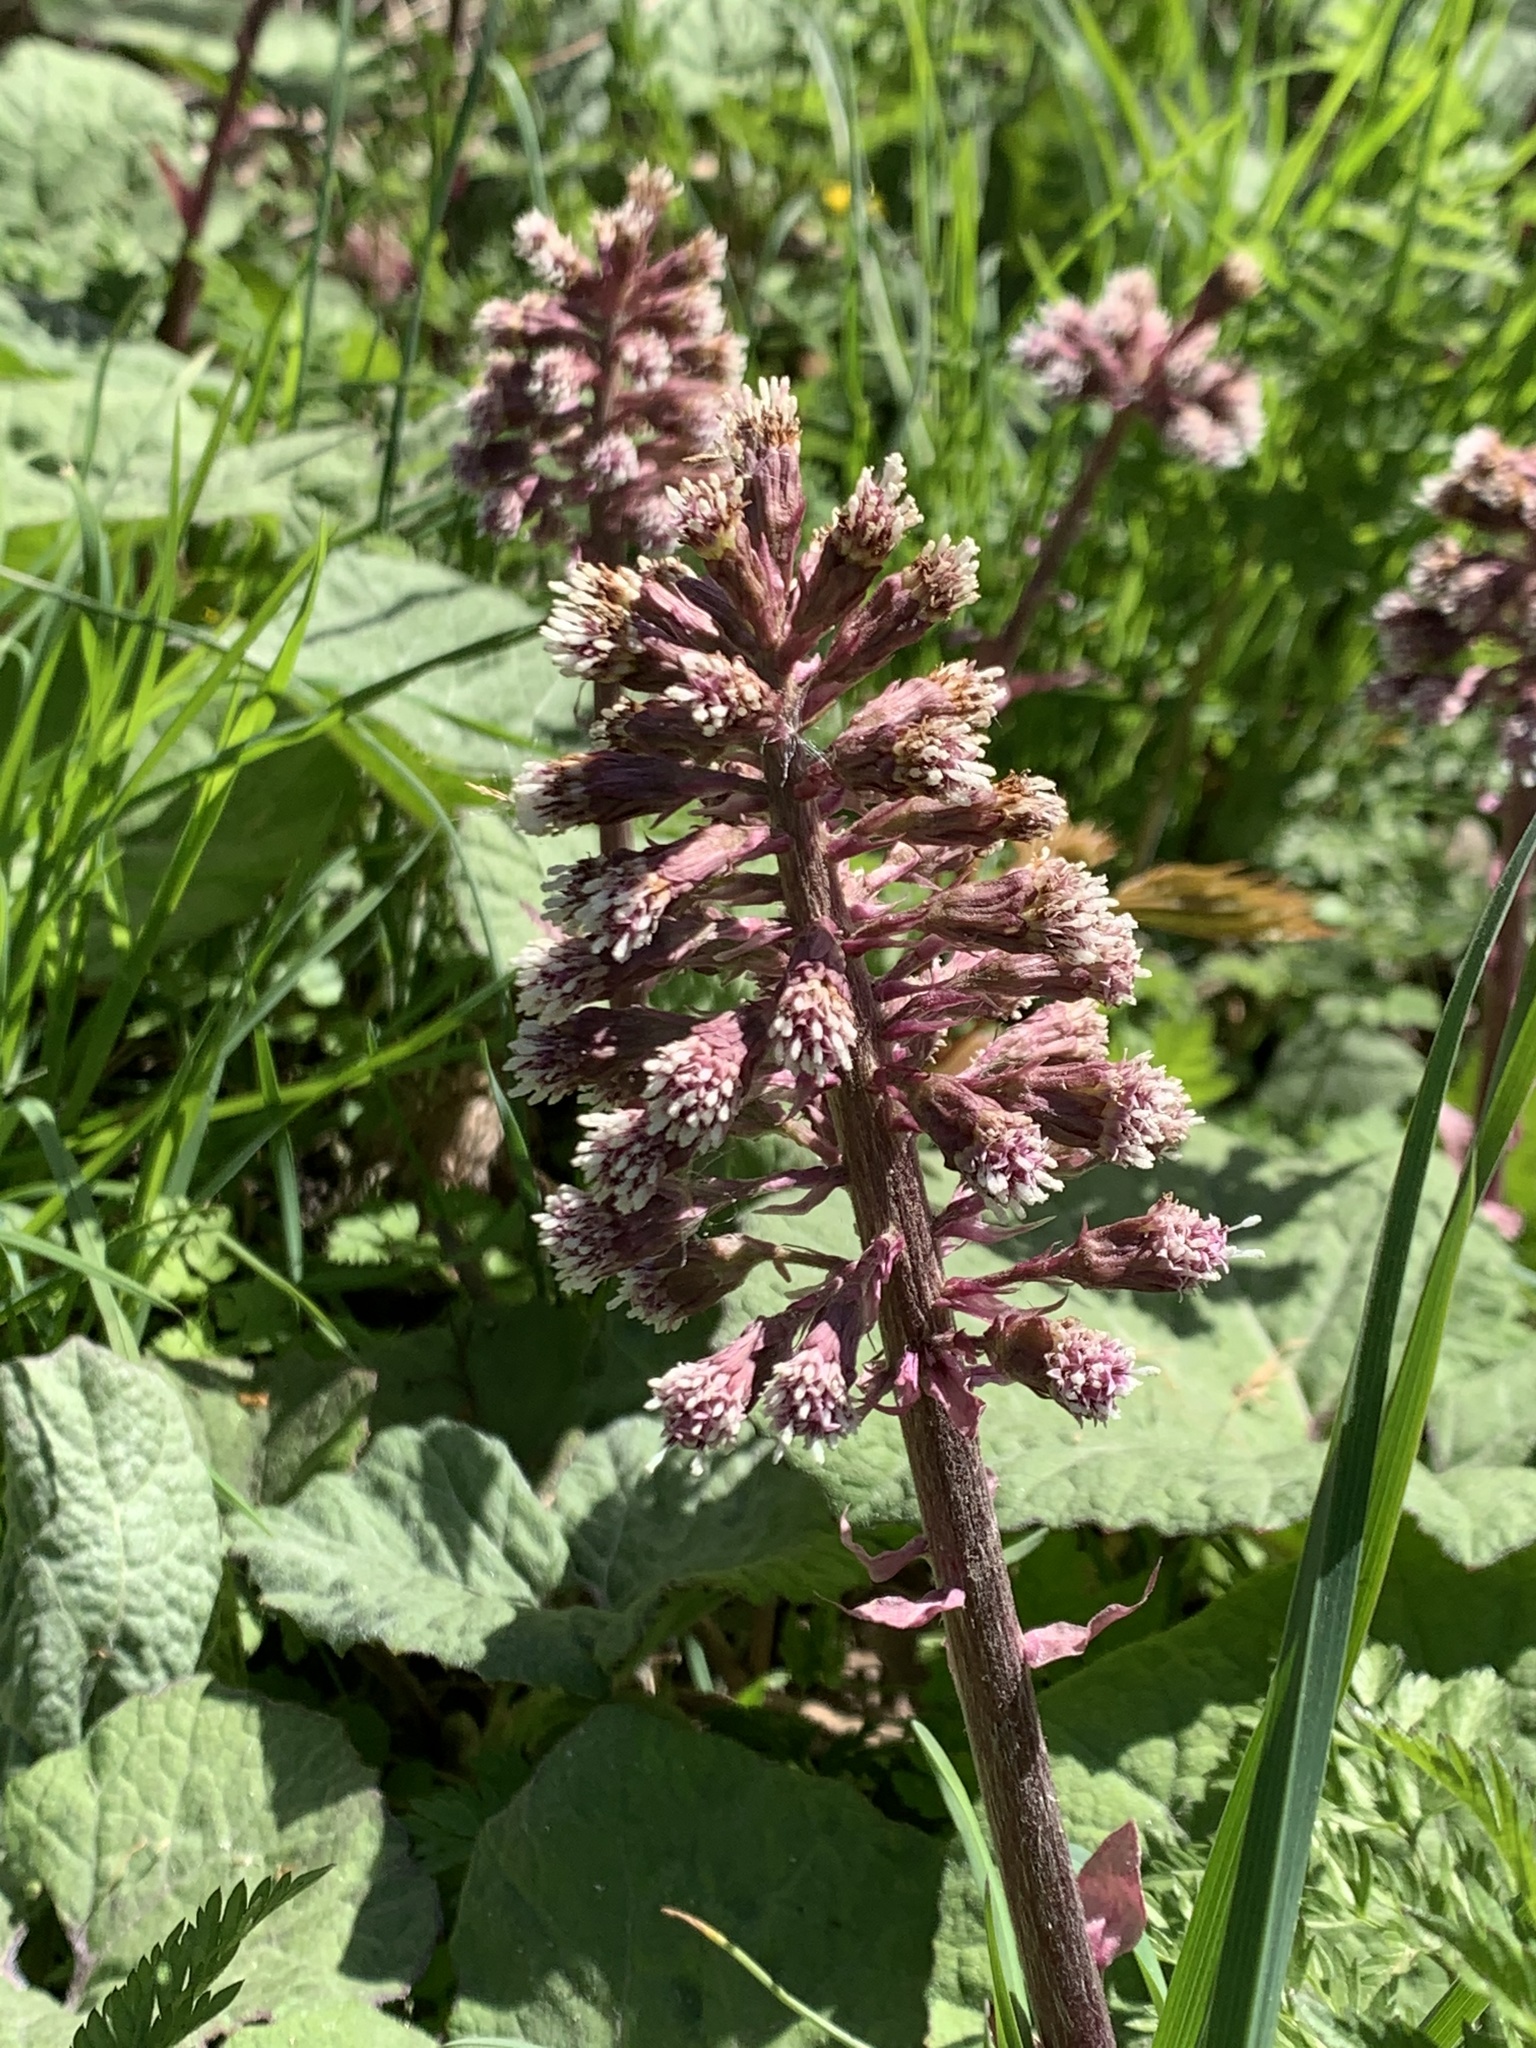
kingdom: Plantae
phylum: Tracheophyta
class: Magnoliopsida
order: Asterales
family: Asteraceae
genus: Petasites
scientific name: Petasites hybridus
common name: Butterbur
